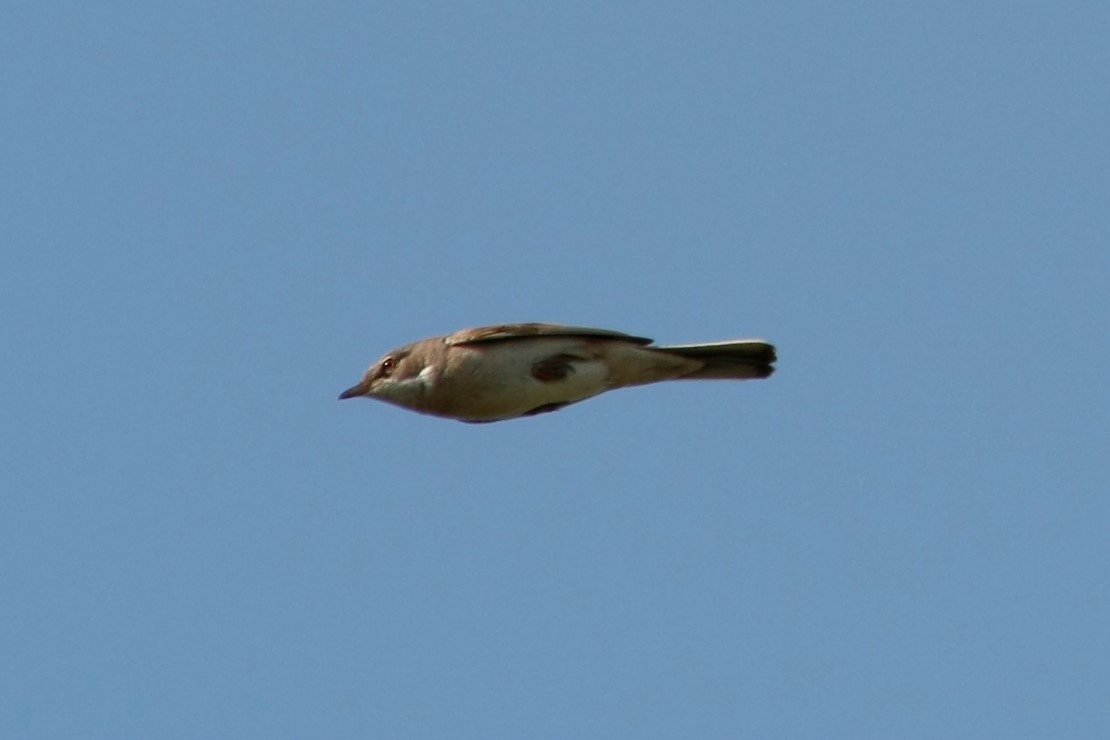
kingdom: Animalia
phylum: Chordata
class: Aves
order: Passeriformes
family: Sylviidae
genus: Sylvia
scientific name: Sylvia communis
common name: Common whitethroat
